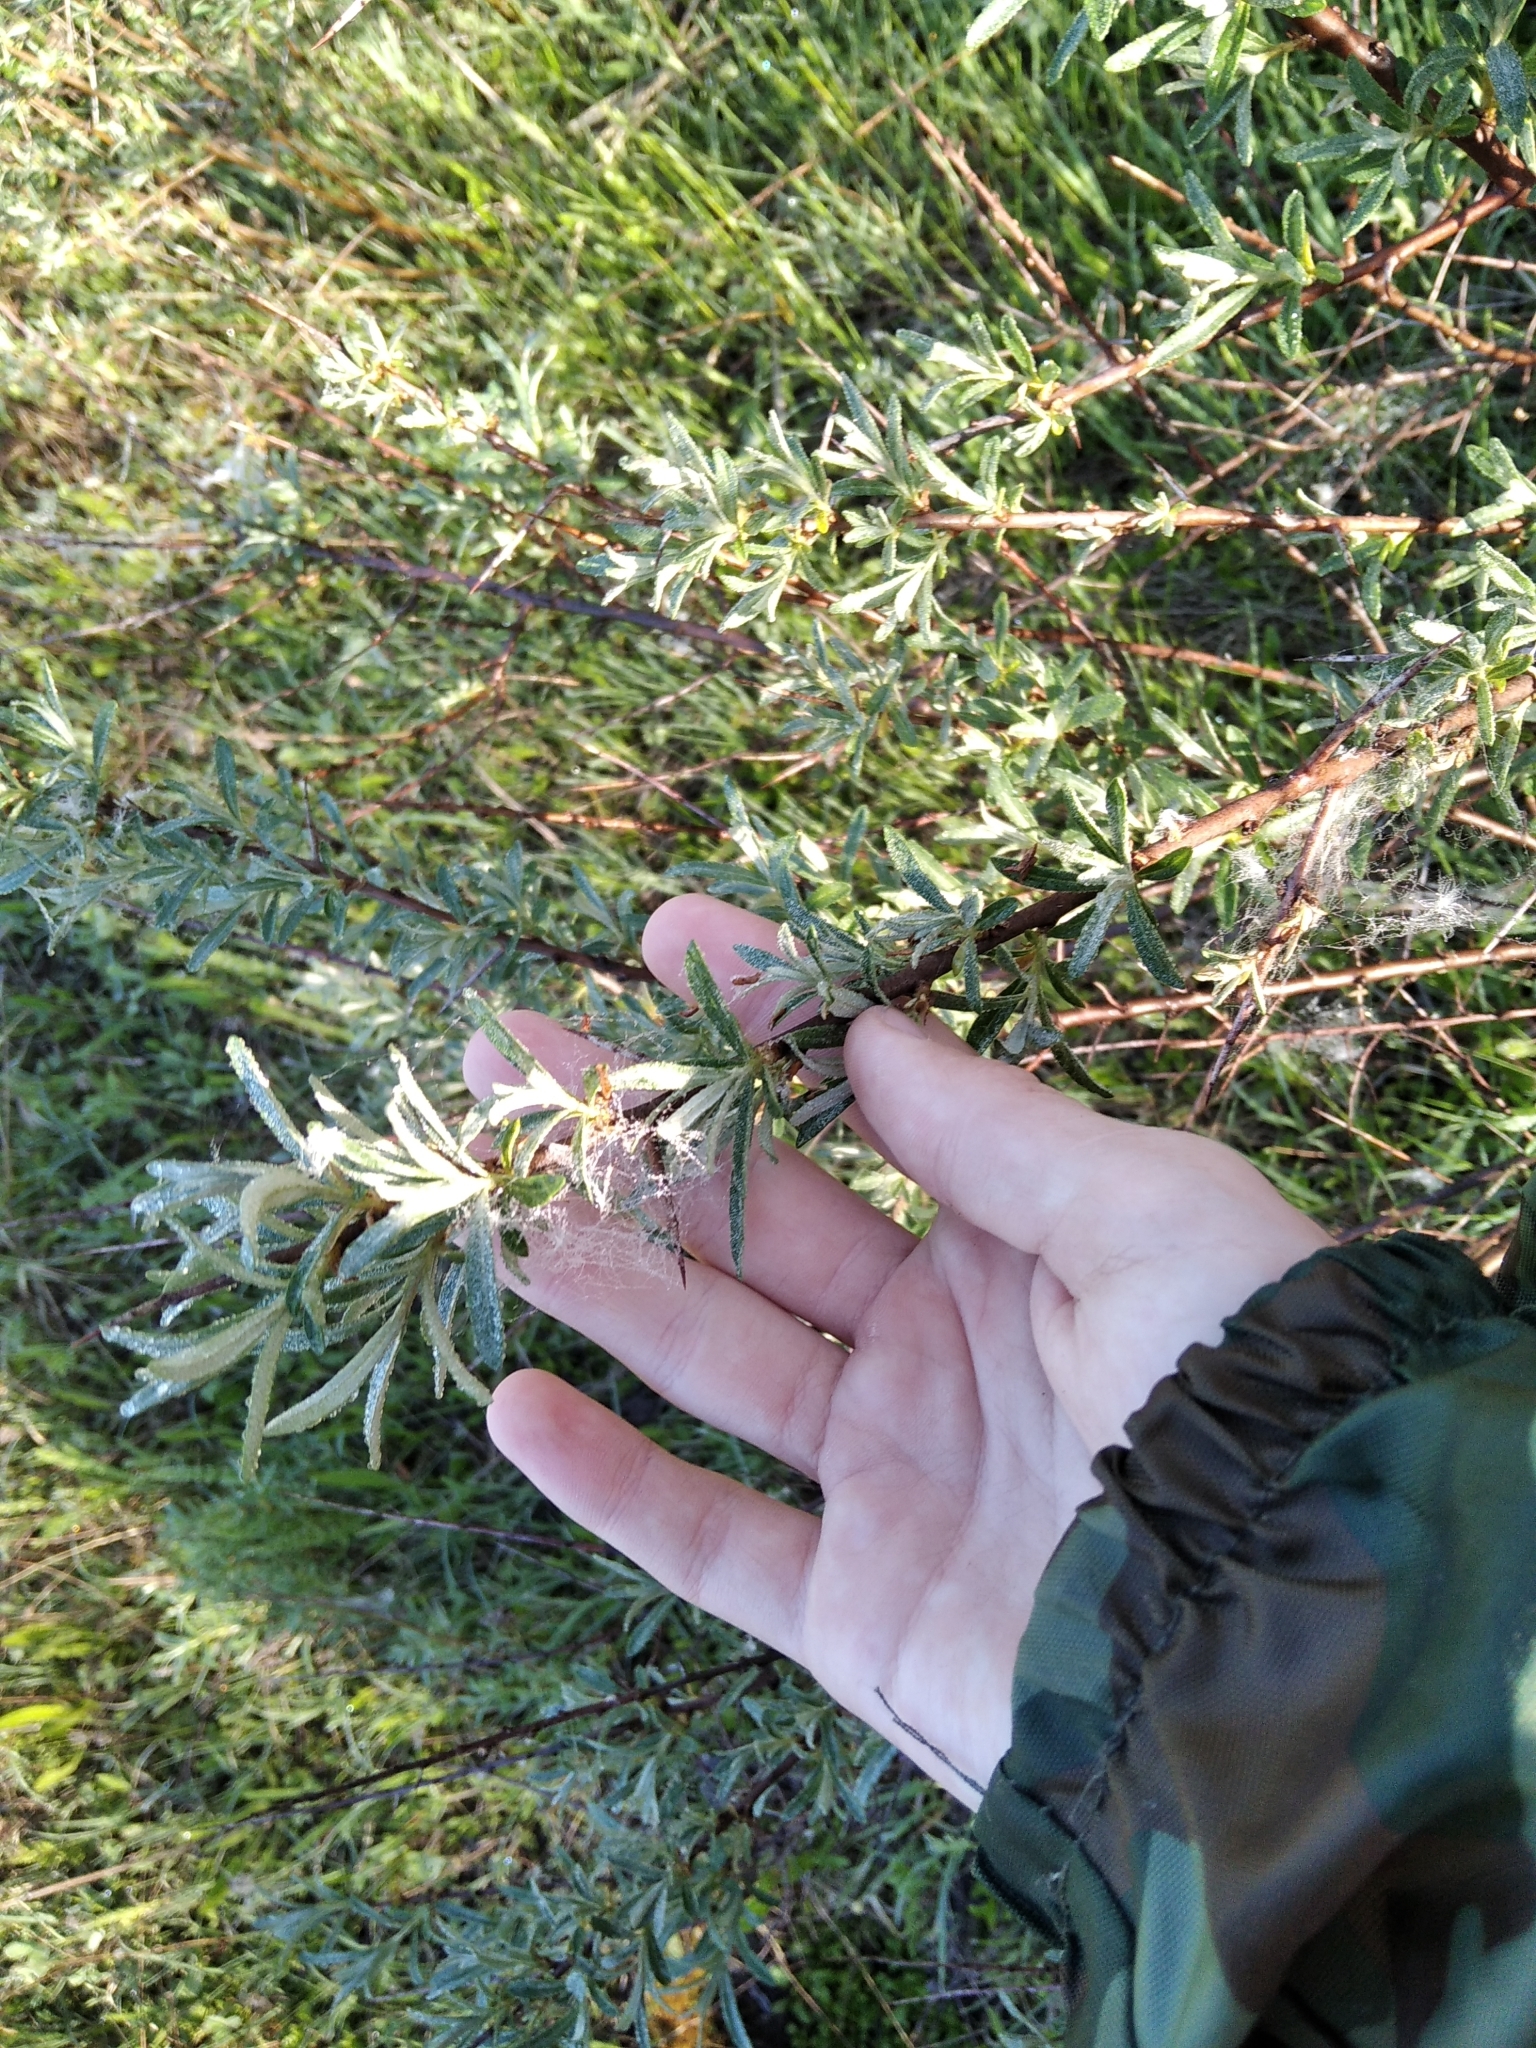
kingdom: Plantae
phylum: Tracheophyta
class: Magnoliopsida
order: Rosales
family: Elaeagnaceae
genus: Hippophae
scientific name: Hippophae rhamnoides
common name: Sea-buckthorn
